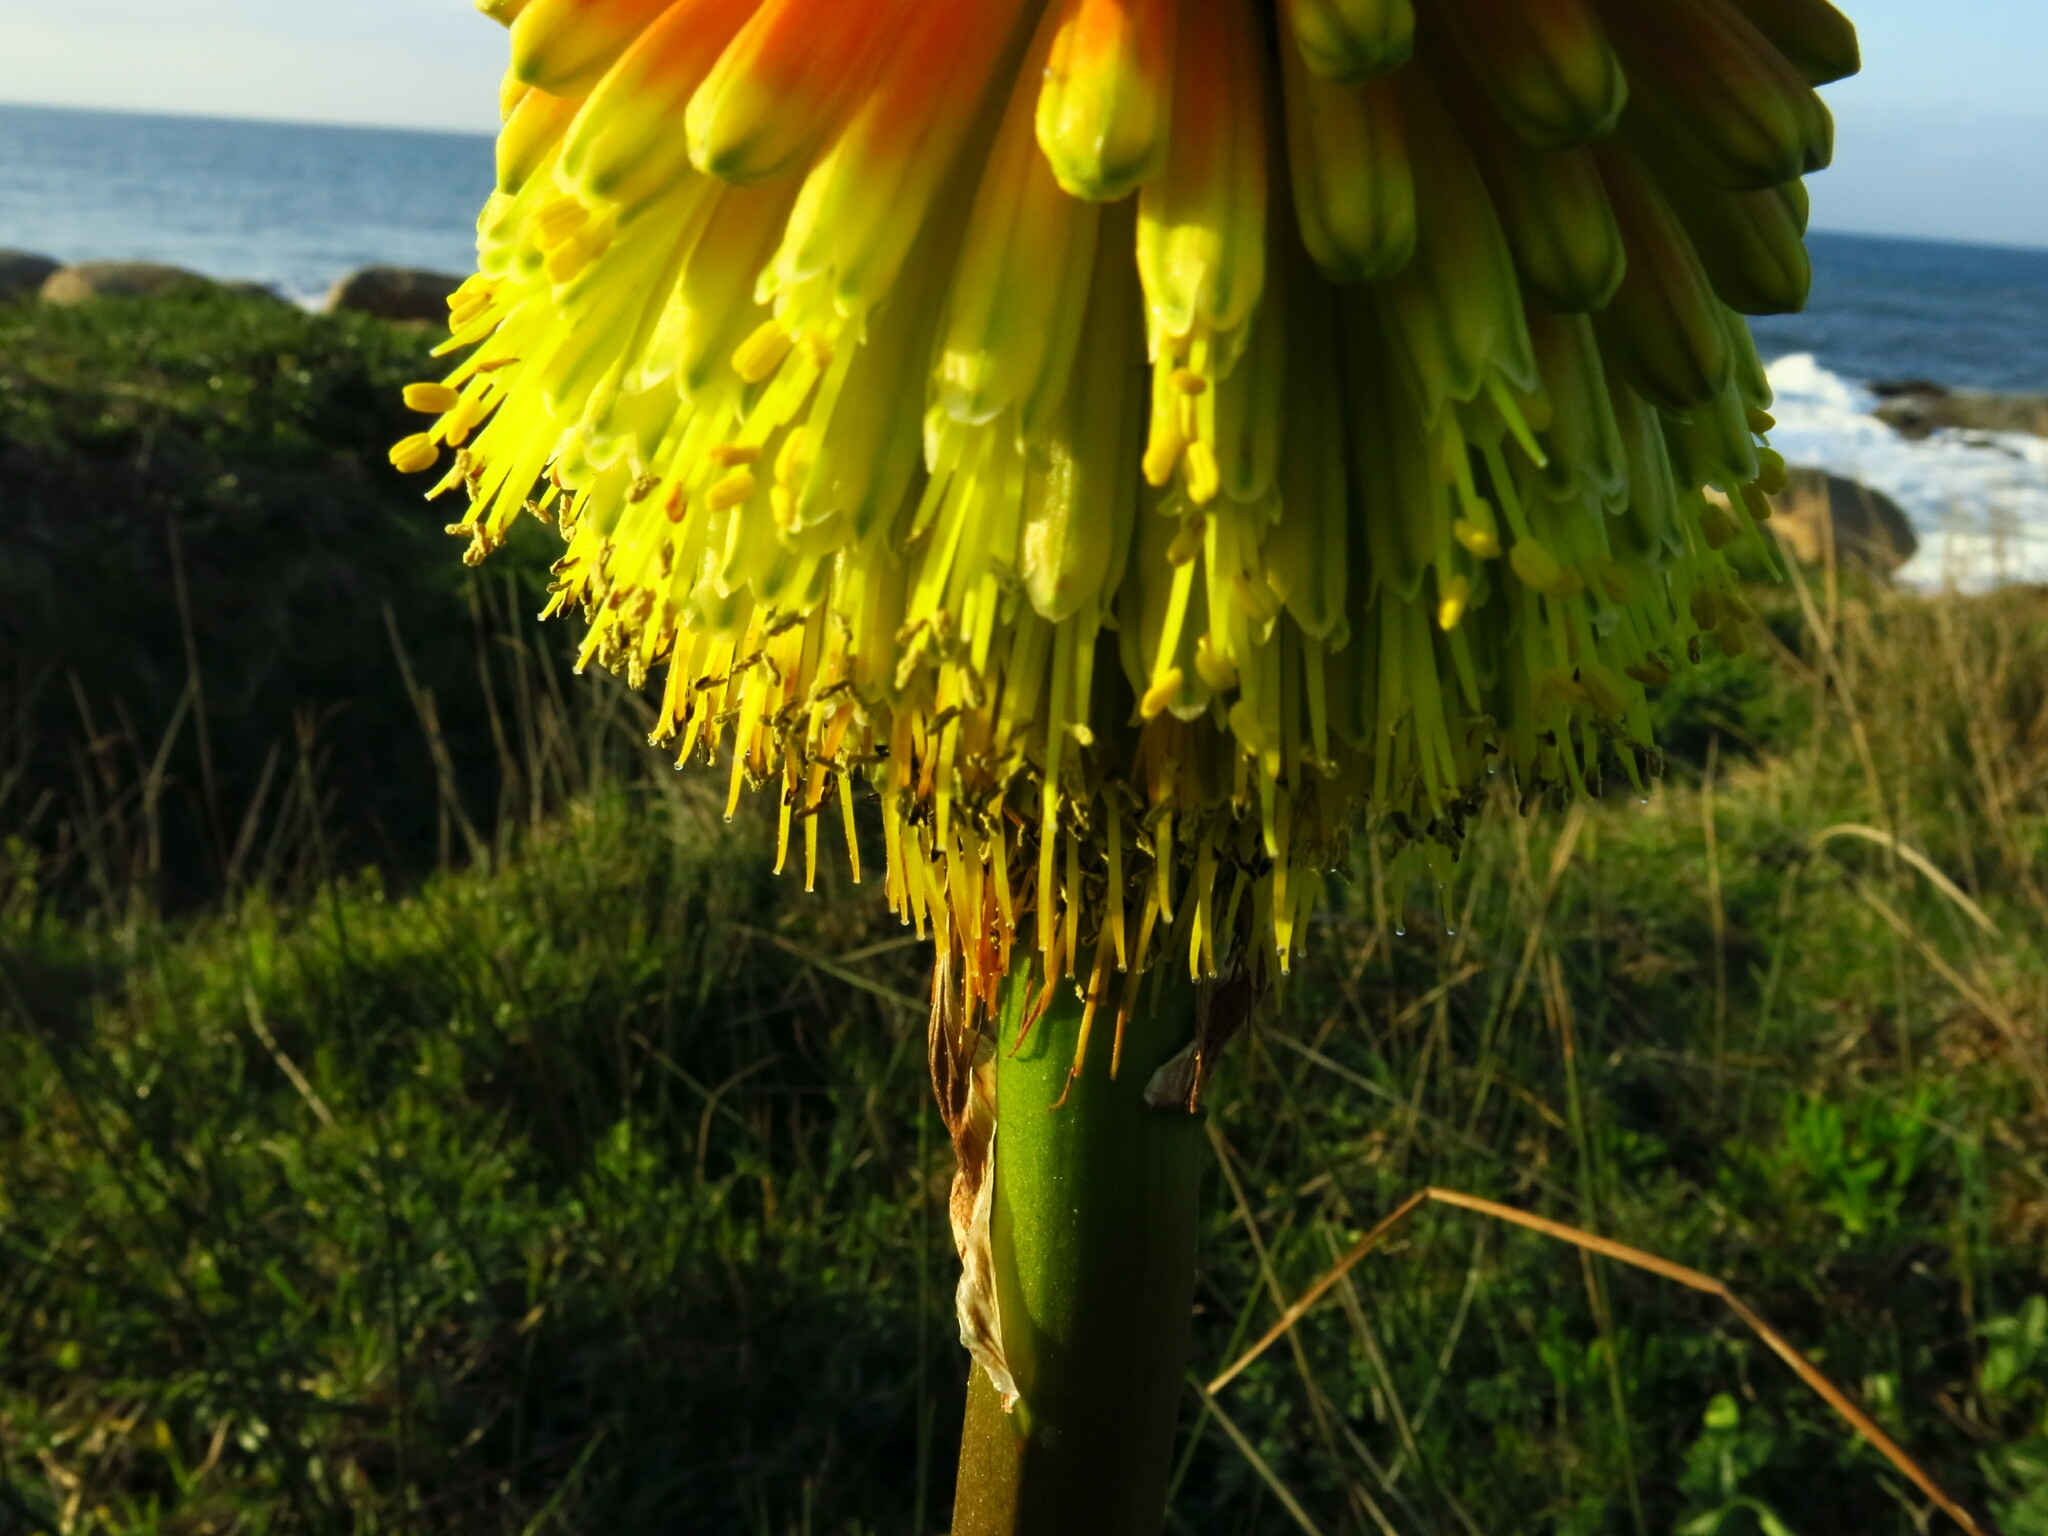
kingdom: Plantae
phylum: Tracheophyta
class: Liliopsida
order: Asparagales
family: Asphodelaceae
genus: Kniphofia
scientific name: Kniphofia rooperi
